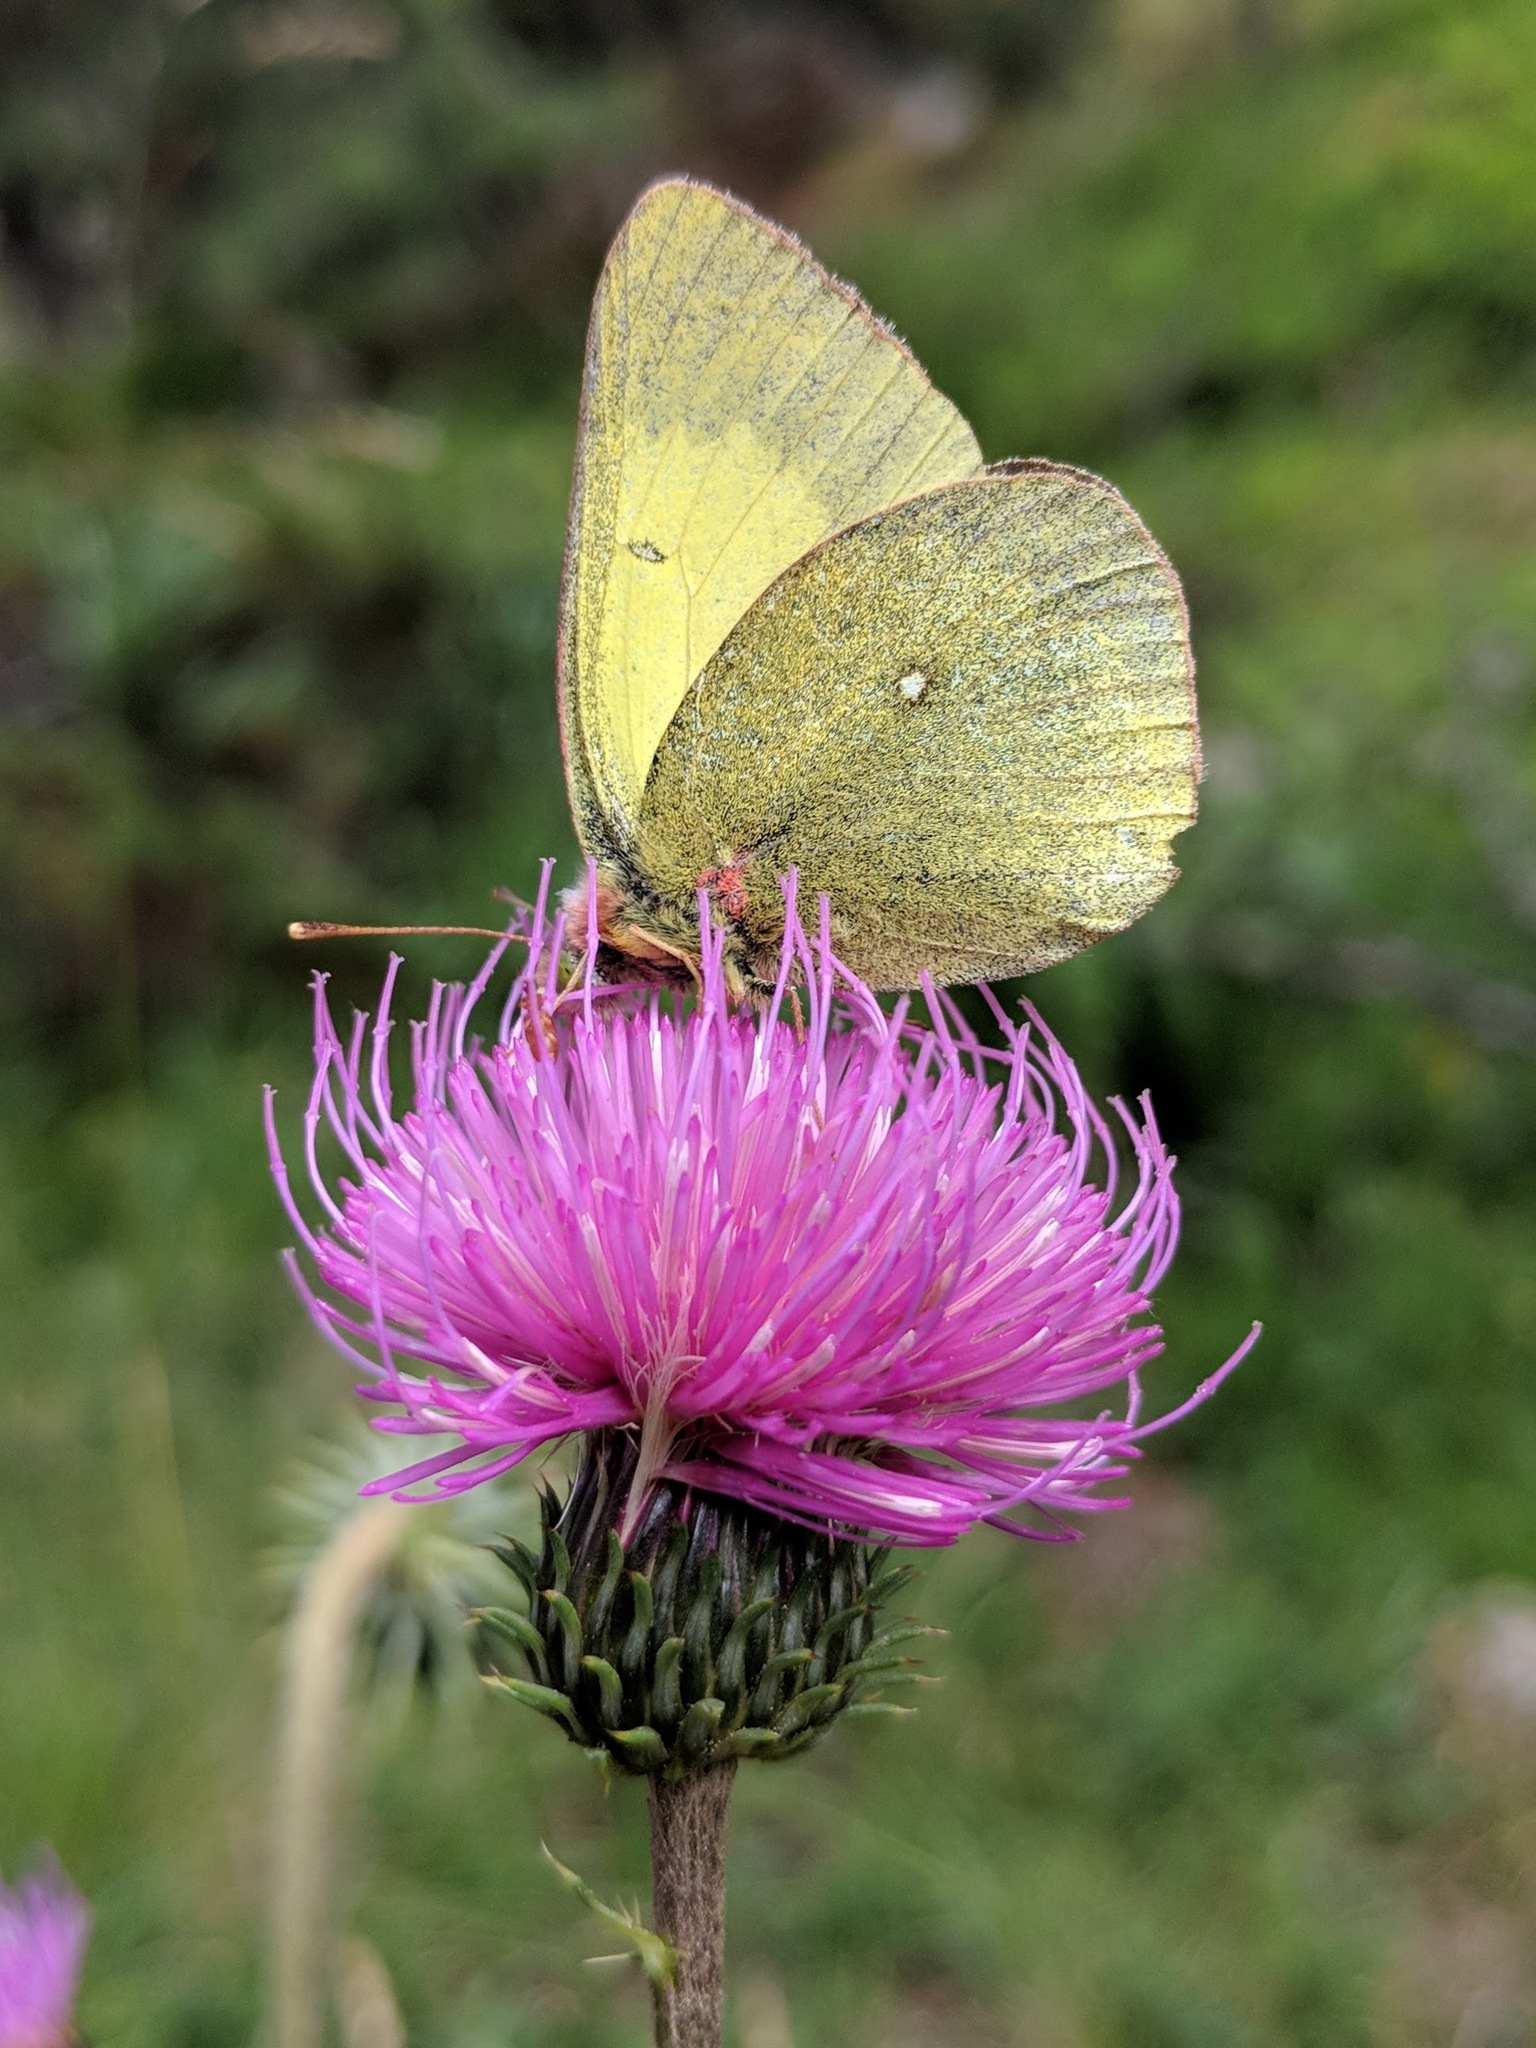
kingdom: Animalia
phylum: Arthropoda
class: Insecta
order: Lepidoptera
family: Pieridae
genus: Colias
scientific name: Colias palaeno
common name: Moorland clouded yellow
